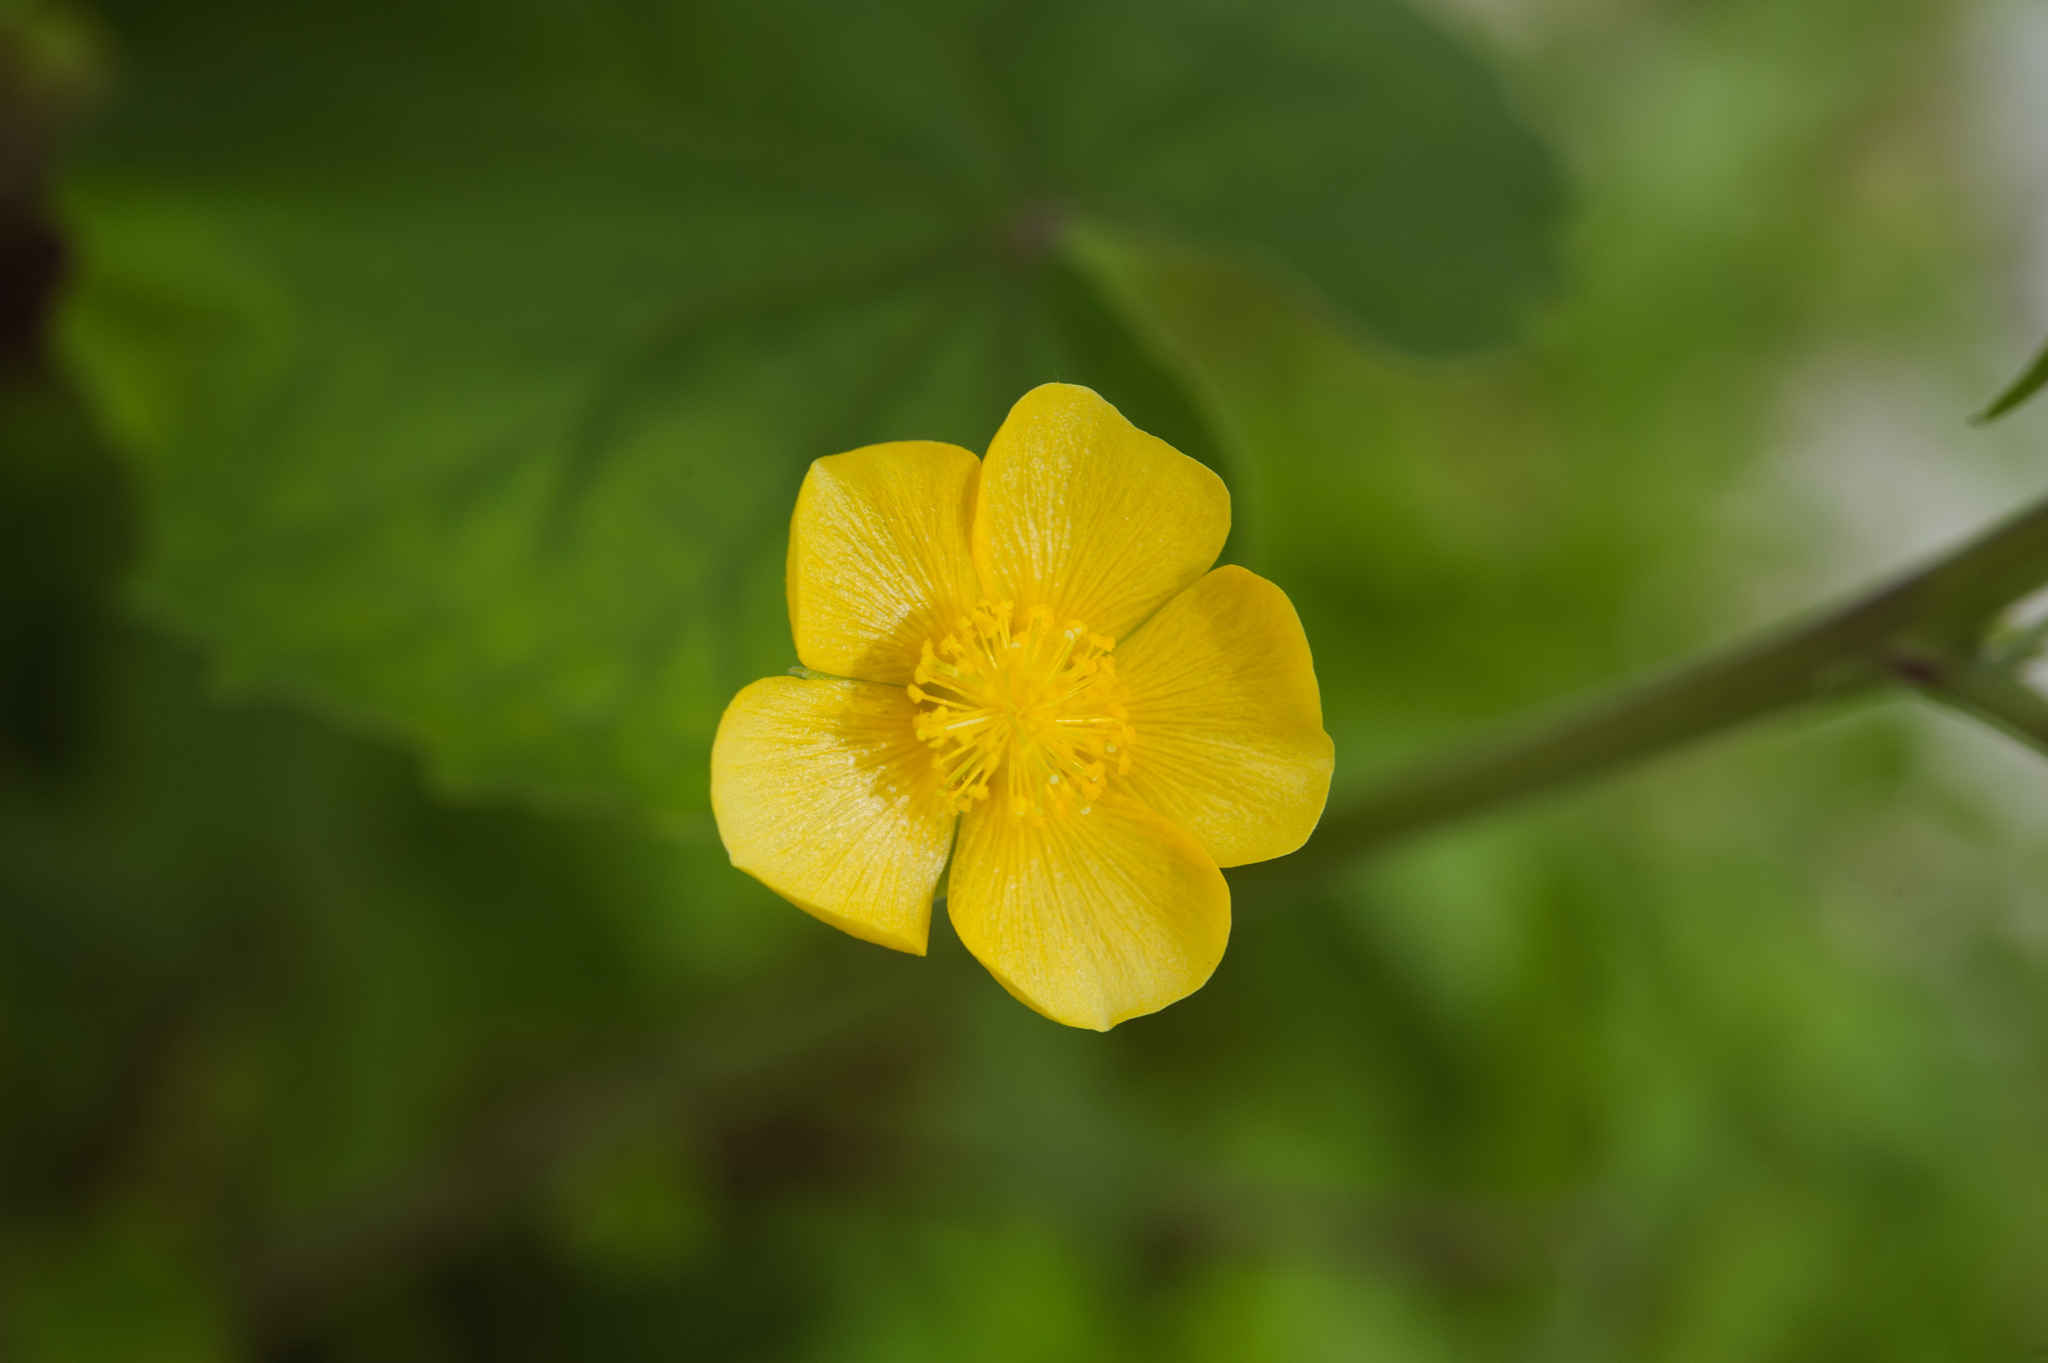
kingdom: Plantae
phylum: Tracheophyta
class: Magnoliopsida
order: Malvales
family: Malvaceae
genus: Abutilon
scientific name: Abutilon indicum
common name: Indian abutilon
